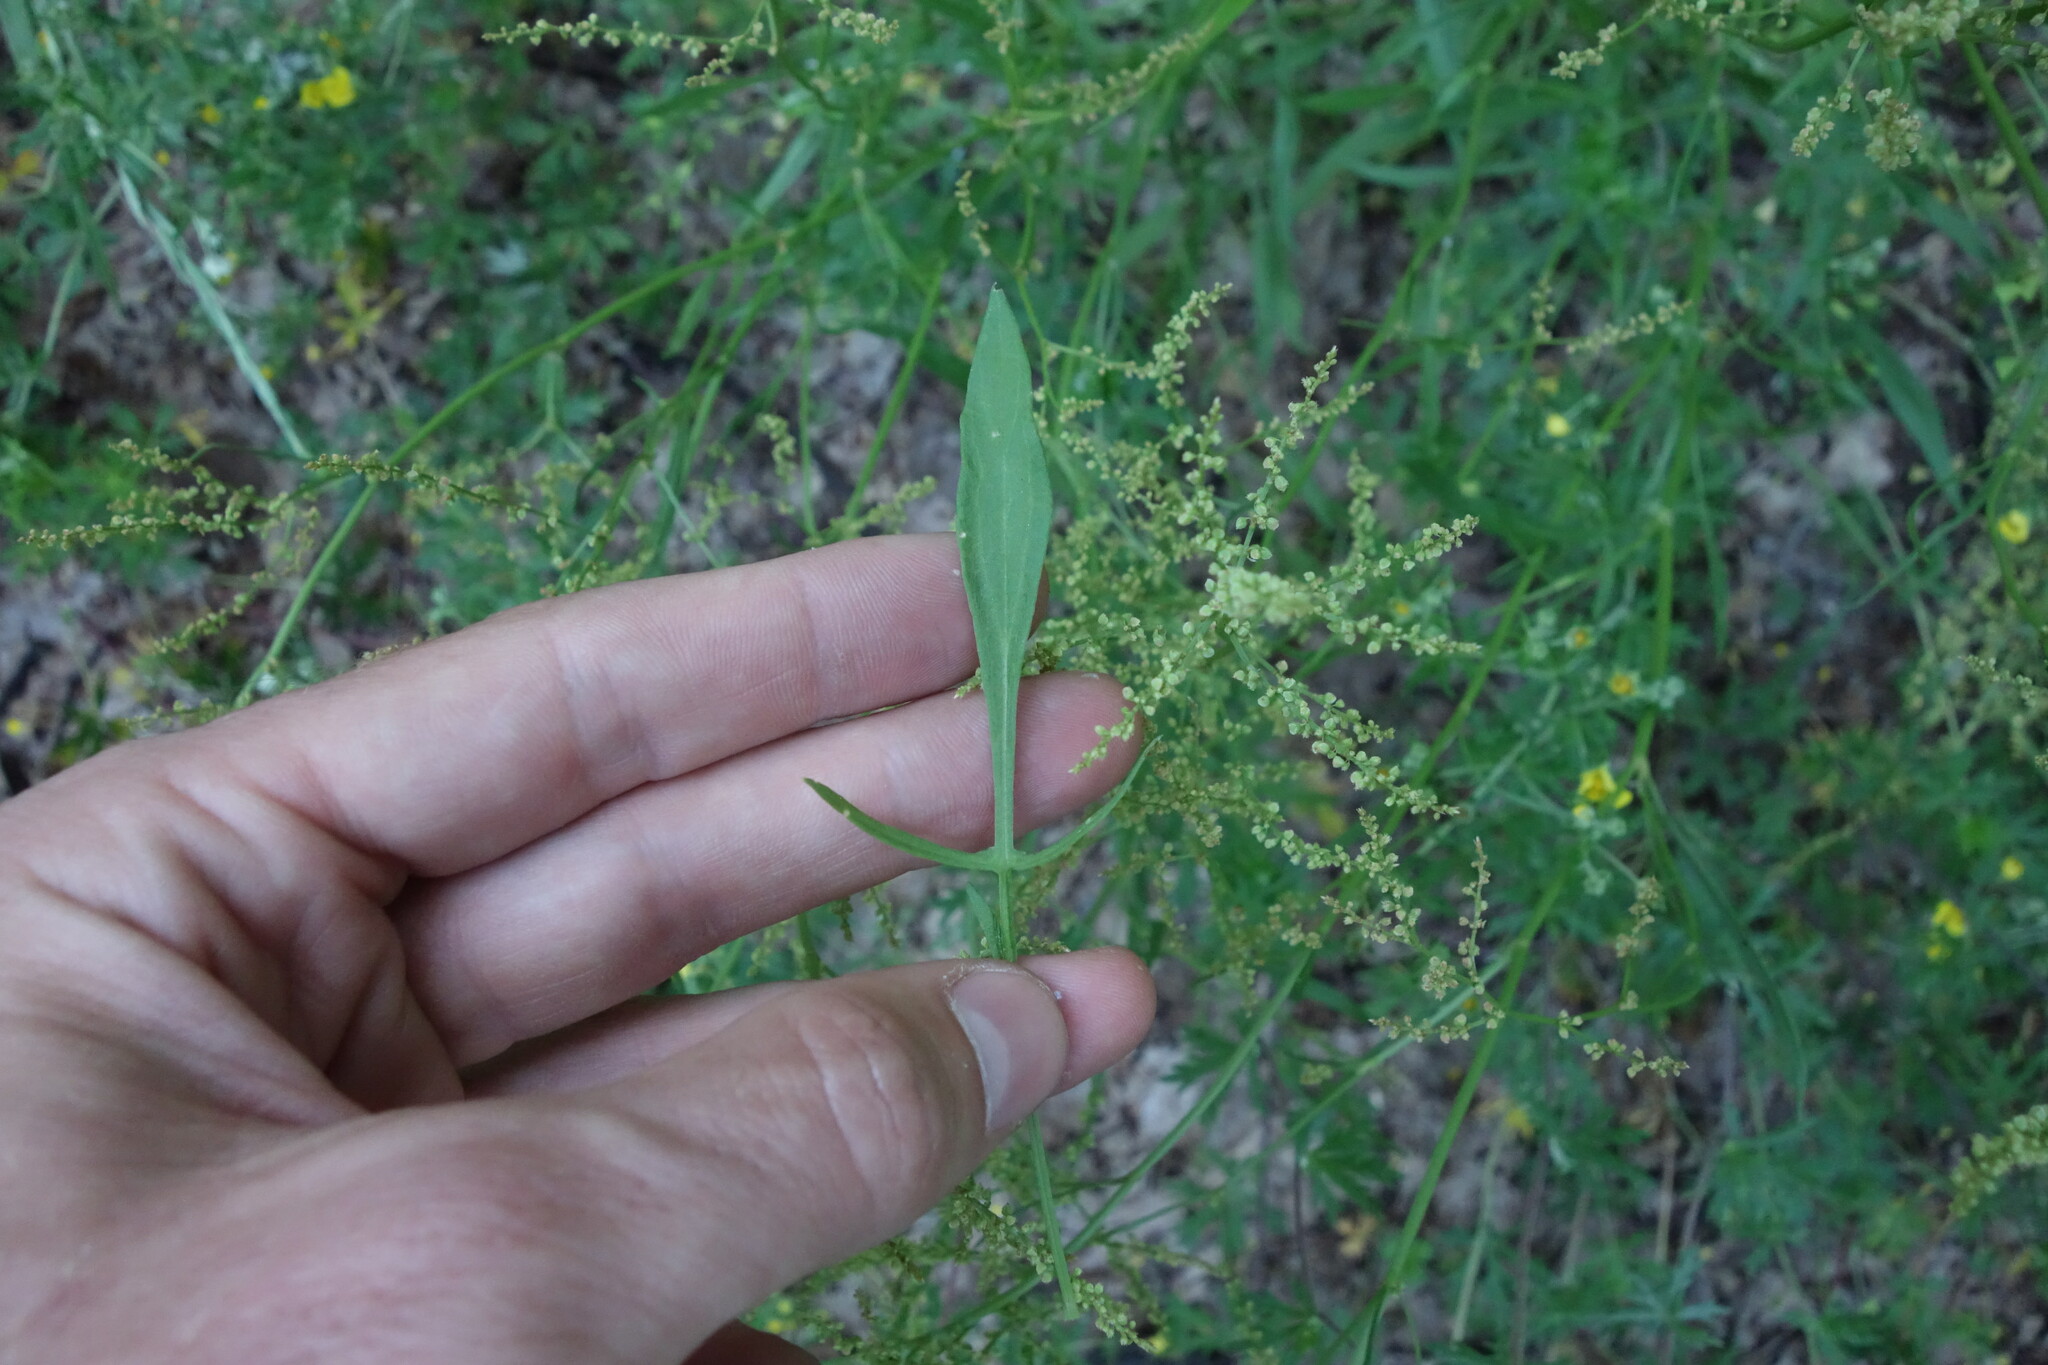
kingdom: Plantae
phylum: Tracheophyta
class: Magnoliopsida
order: Caryophyllales
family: Polygonaceae
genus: Rumex
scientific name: Rumex acetosella
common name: Common sheep sorrel
